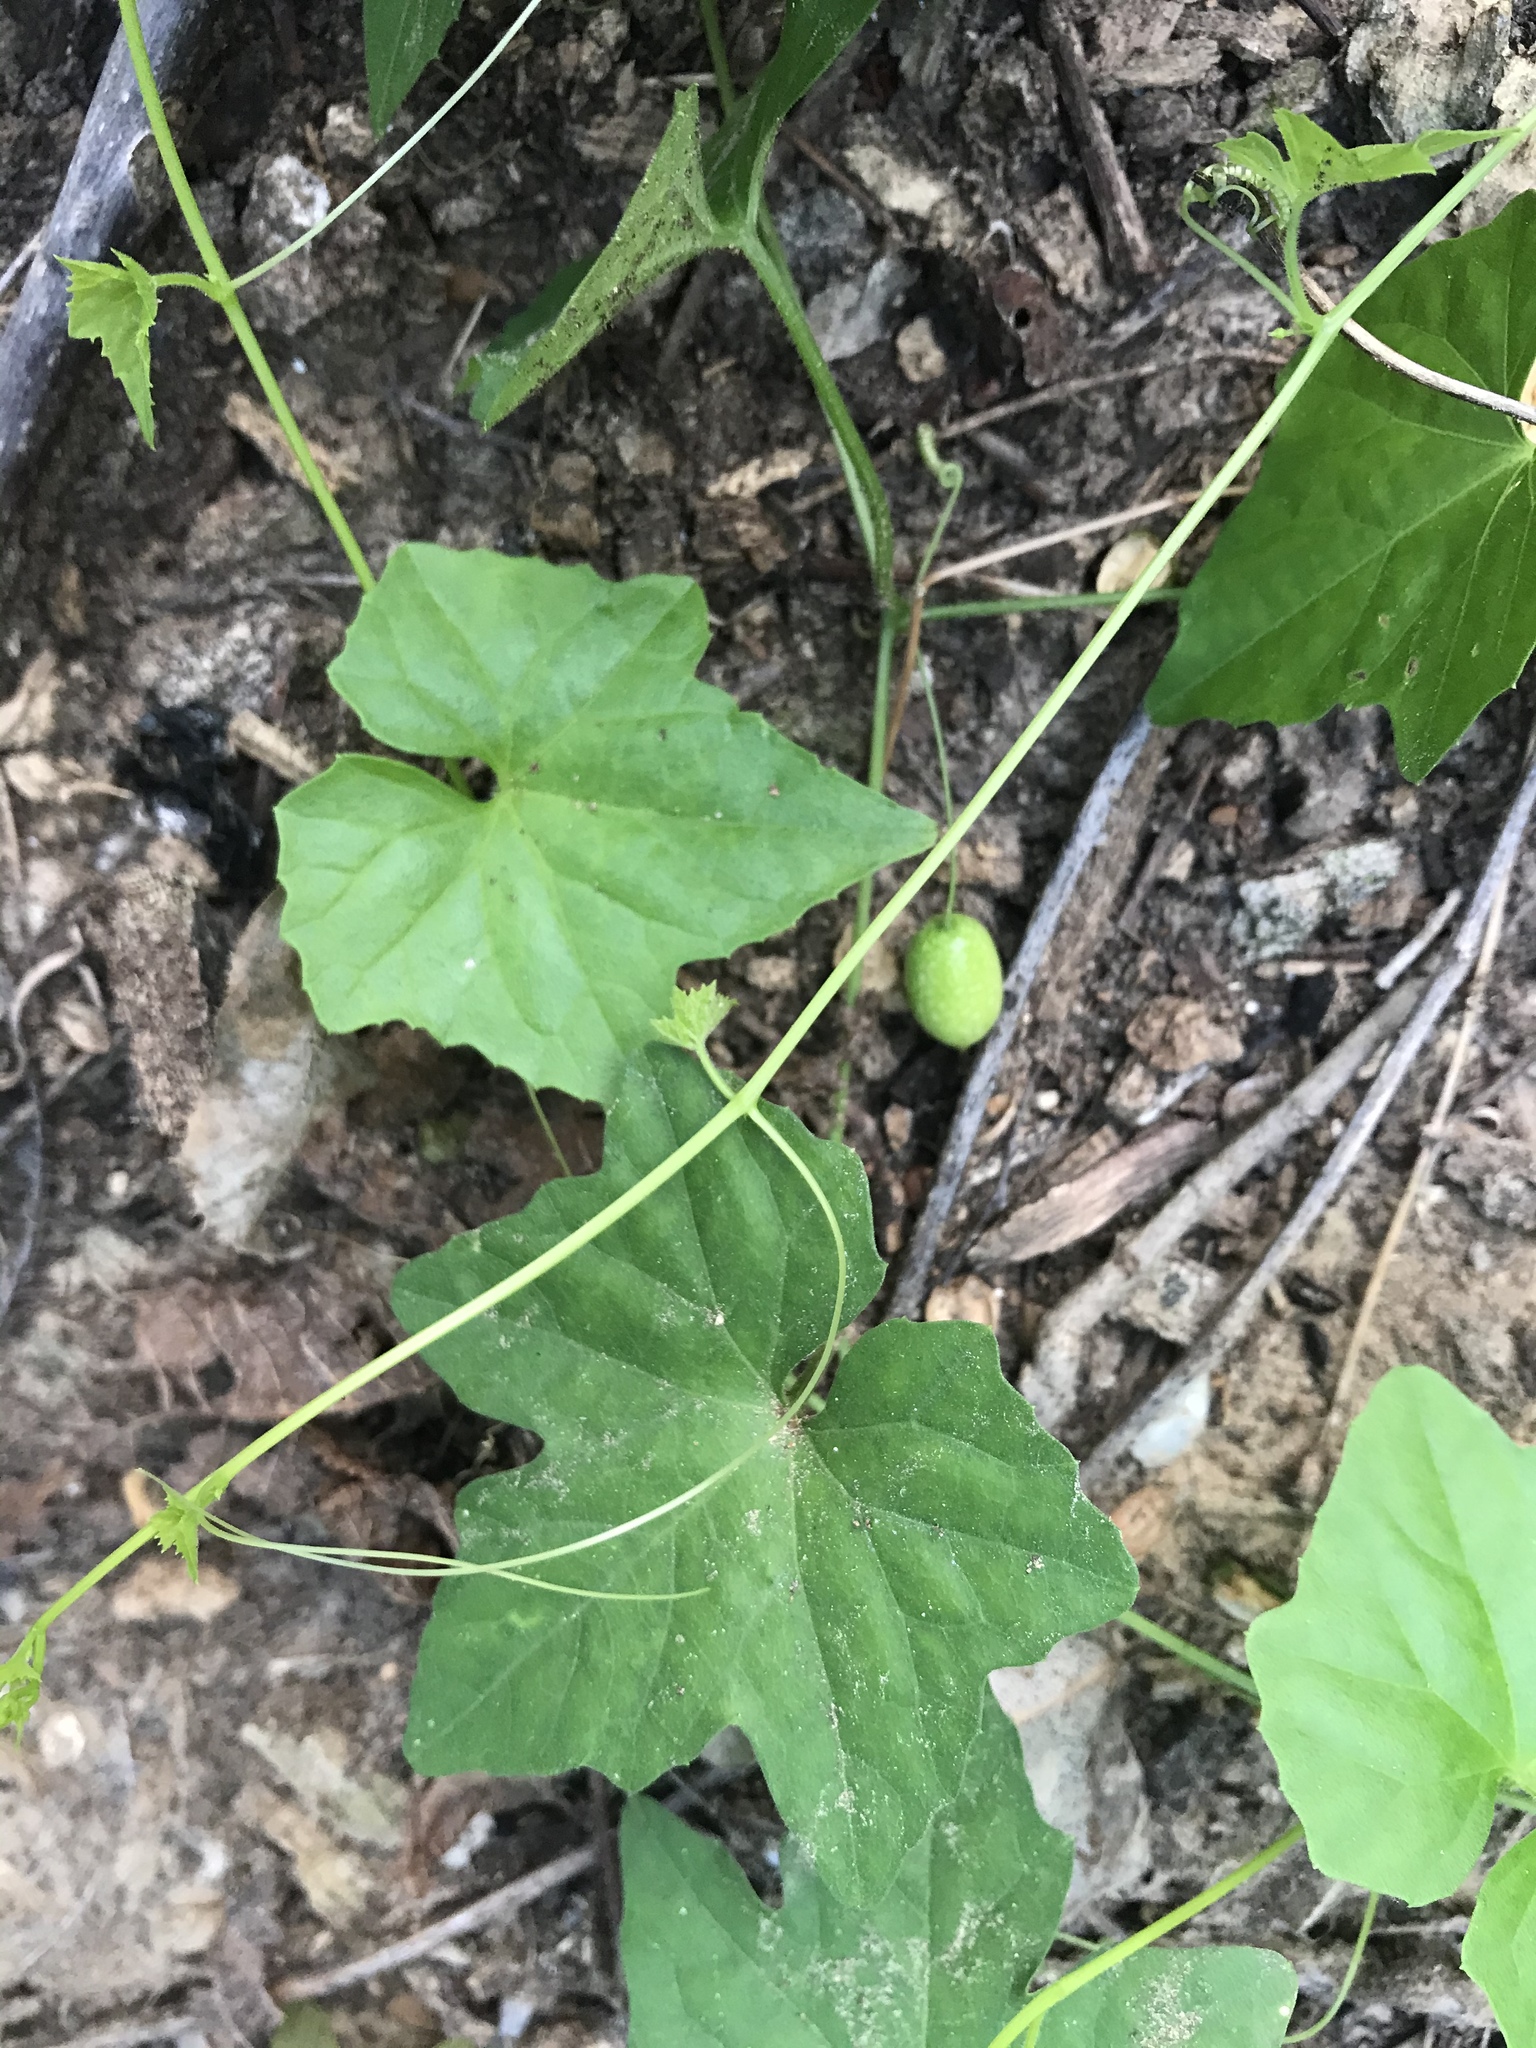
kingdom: Plantae
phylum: Tracheophyta
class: Magnoliopsida
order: Cucurbitales
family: Cucurbitaceae
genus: Melothria
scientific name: Melothria pendula
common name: Creeping-cucumber
